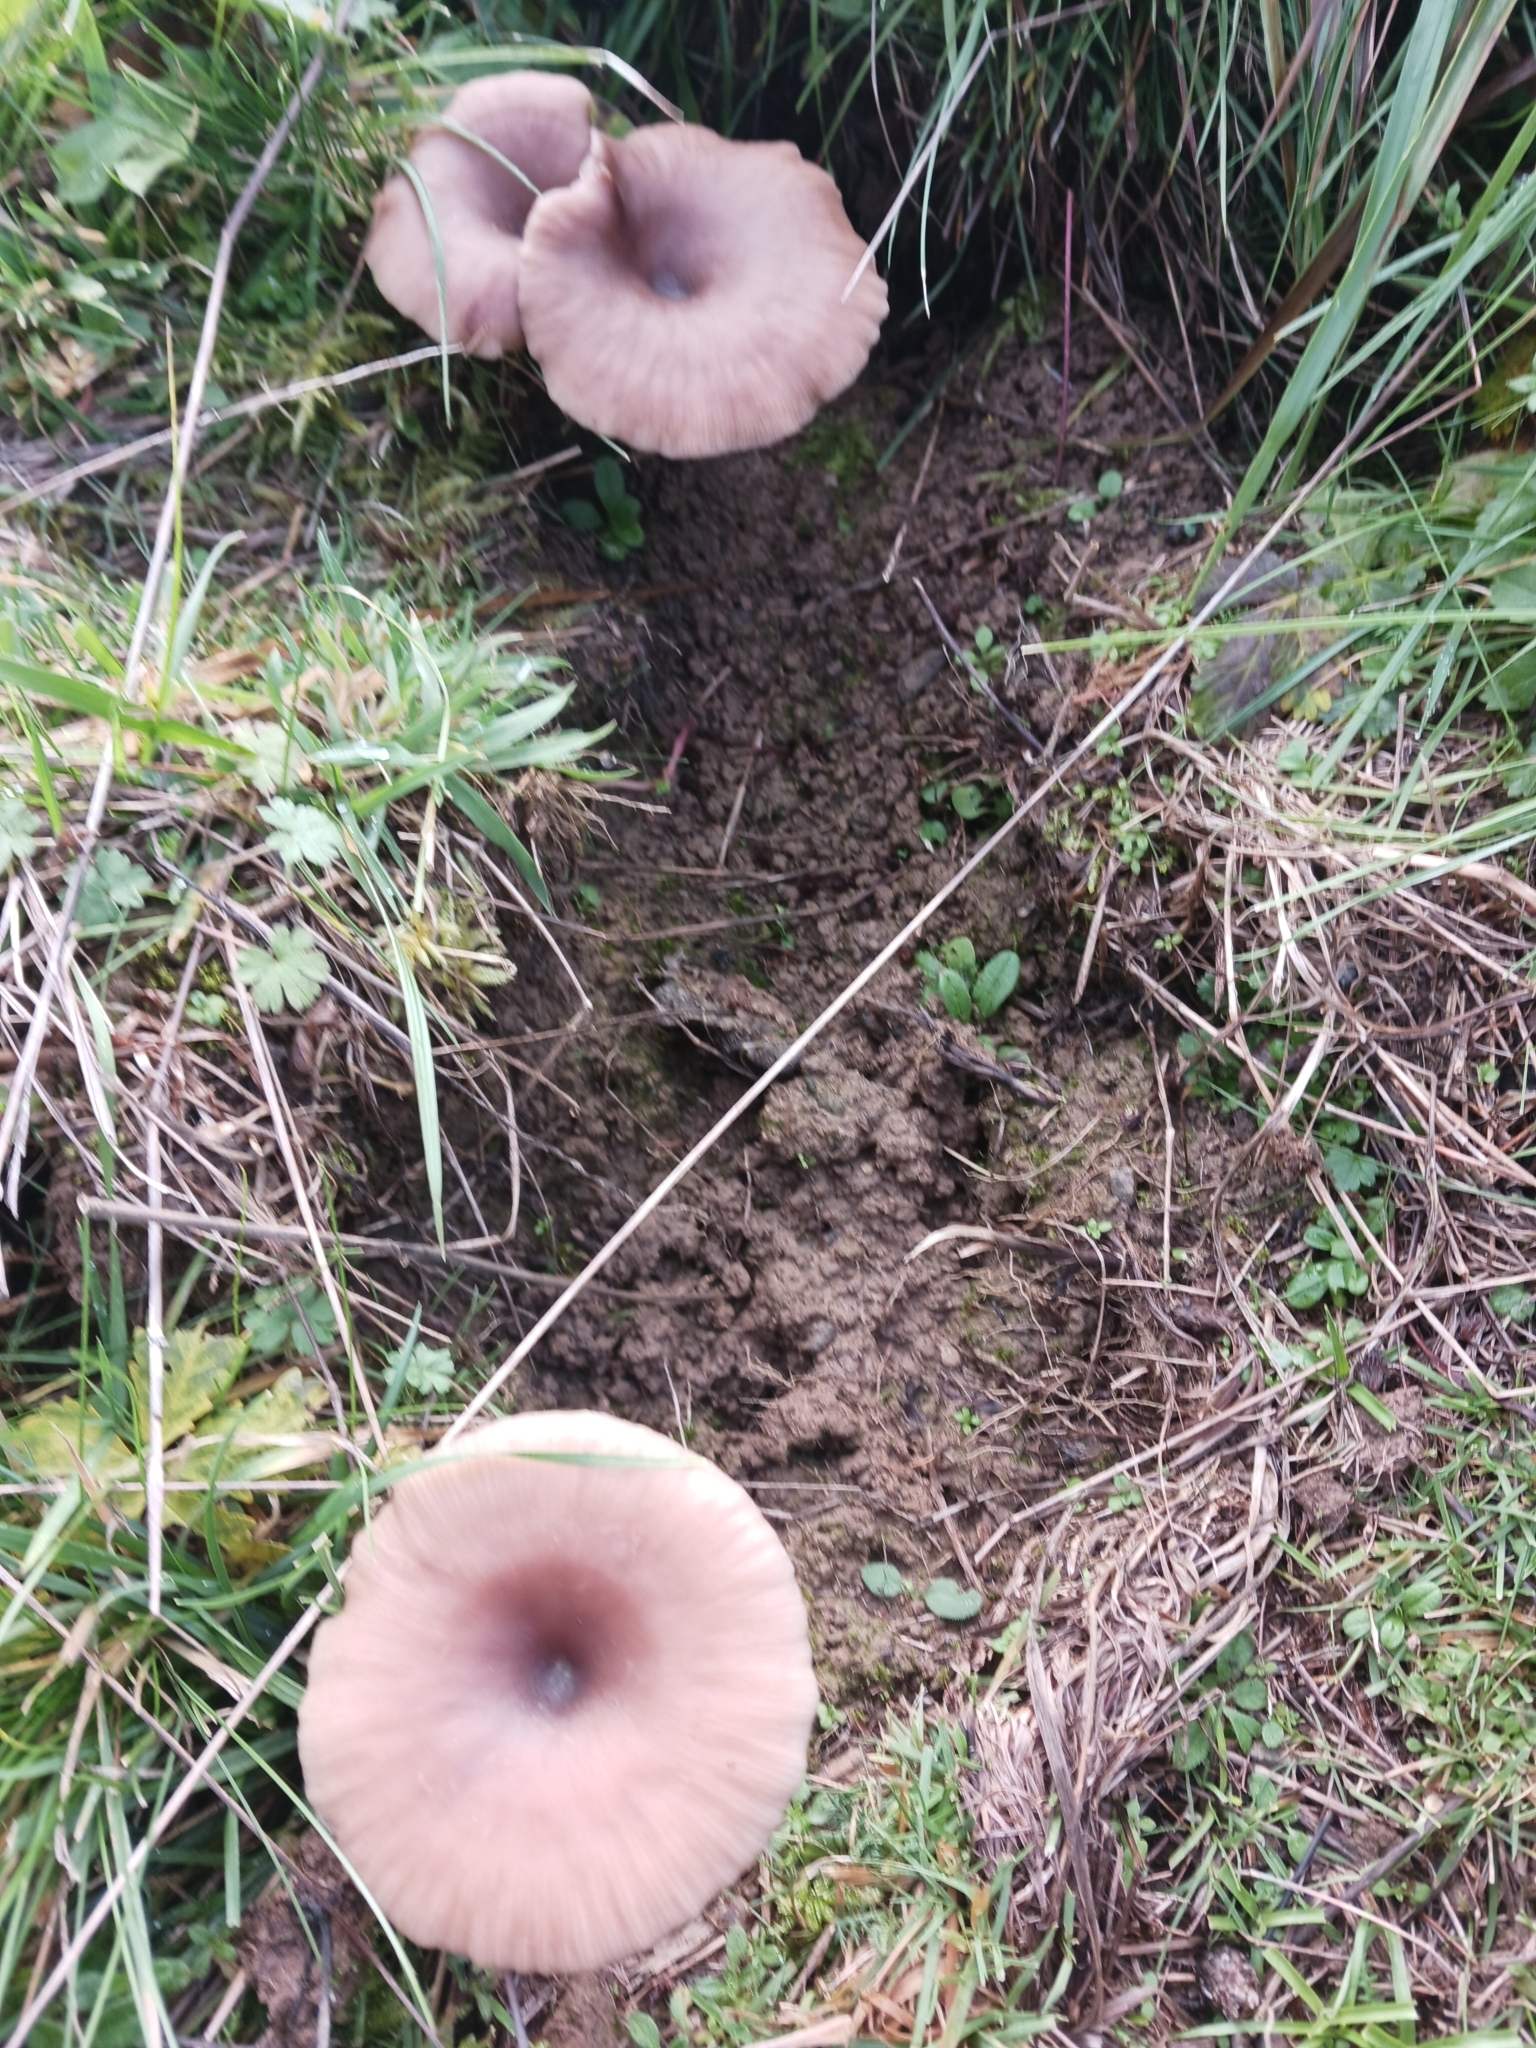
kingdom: Fungi
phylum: Basidiomycota
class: Agaricomycetes
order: Agaricales
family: Pseudoclitocybaceae
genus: Pseudoclitocybe
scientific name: Pseudoclitocybe expallens
